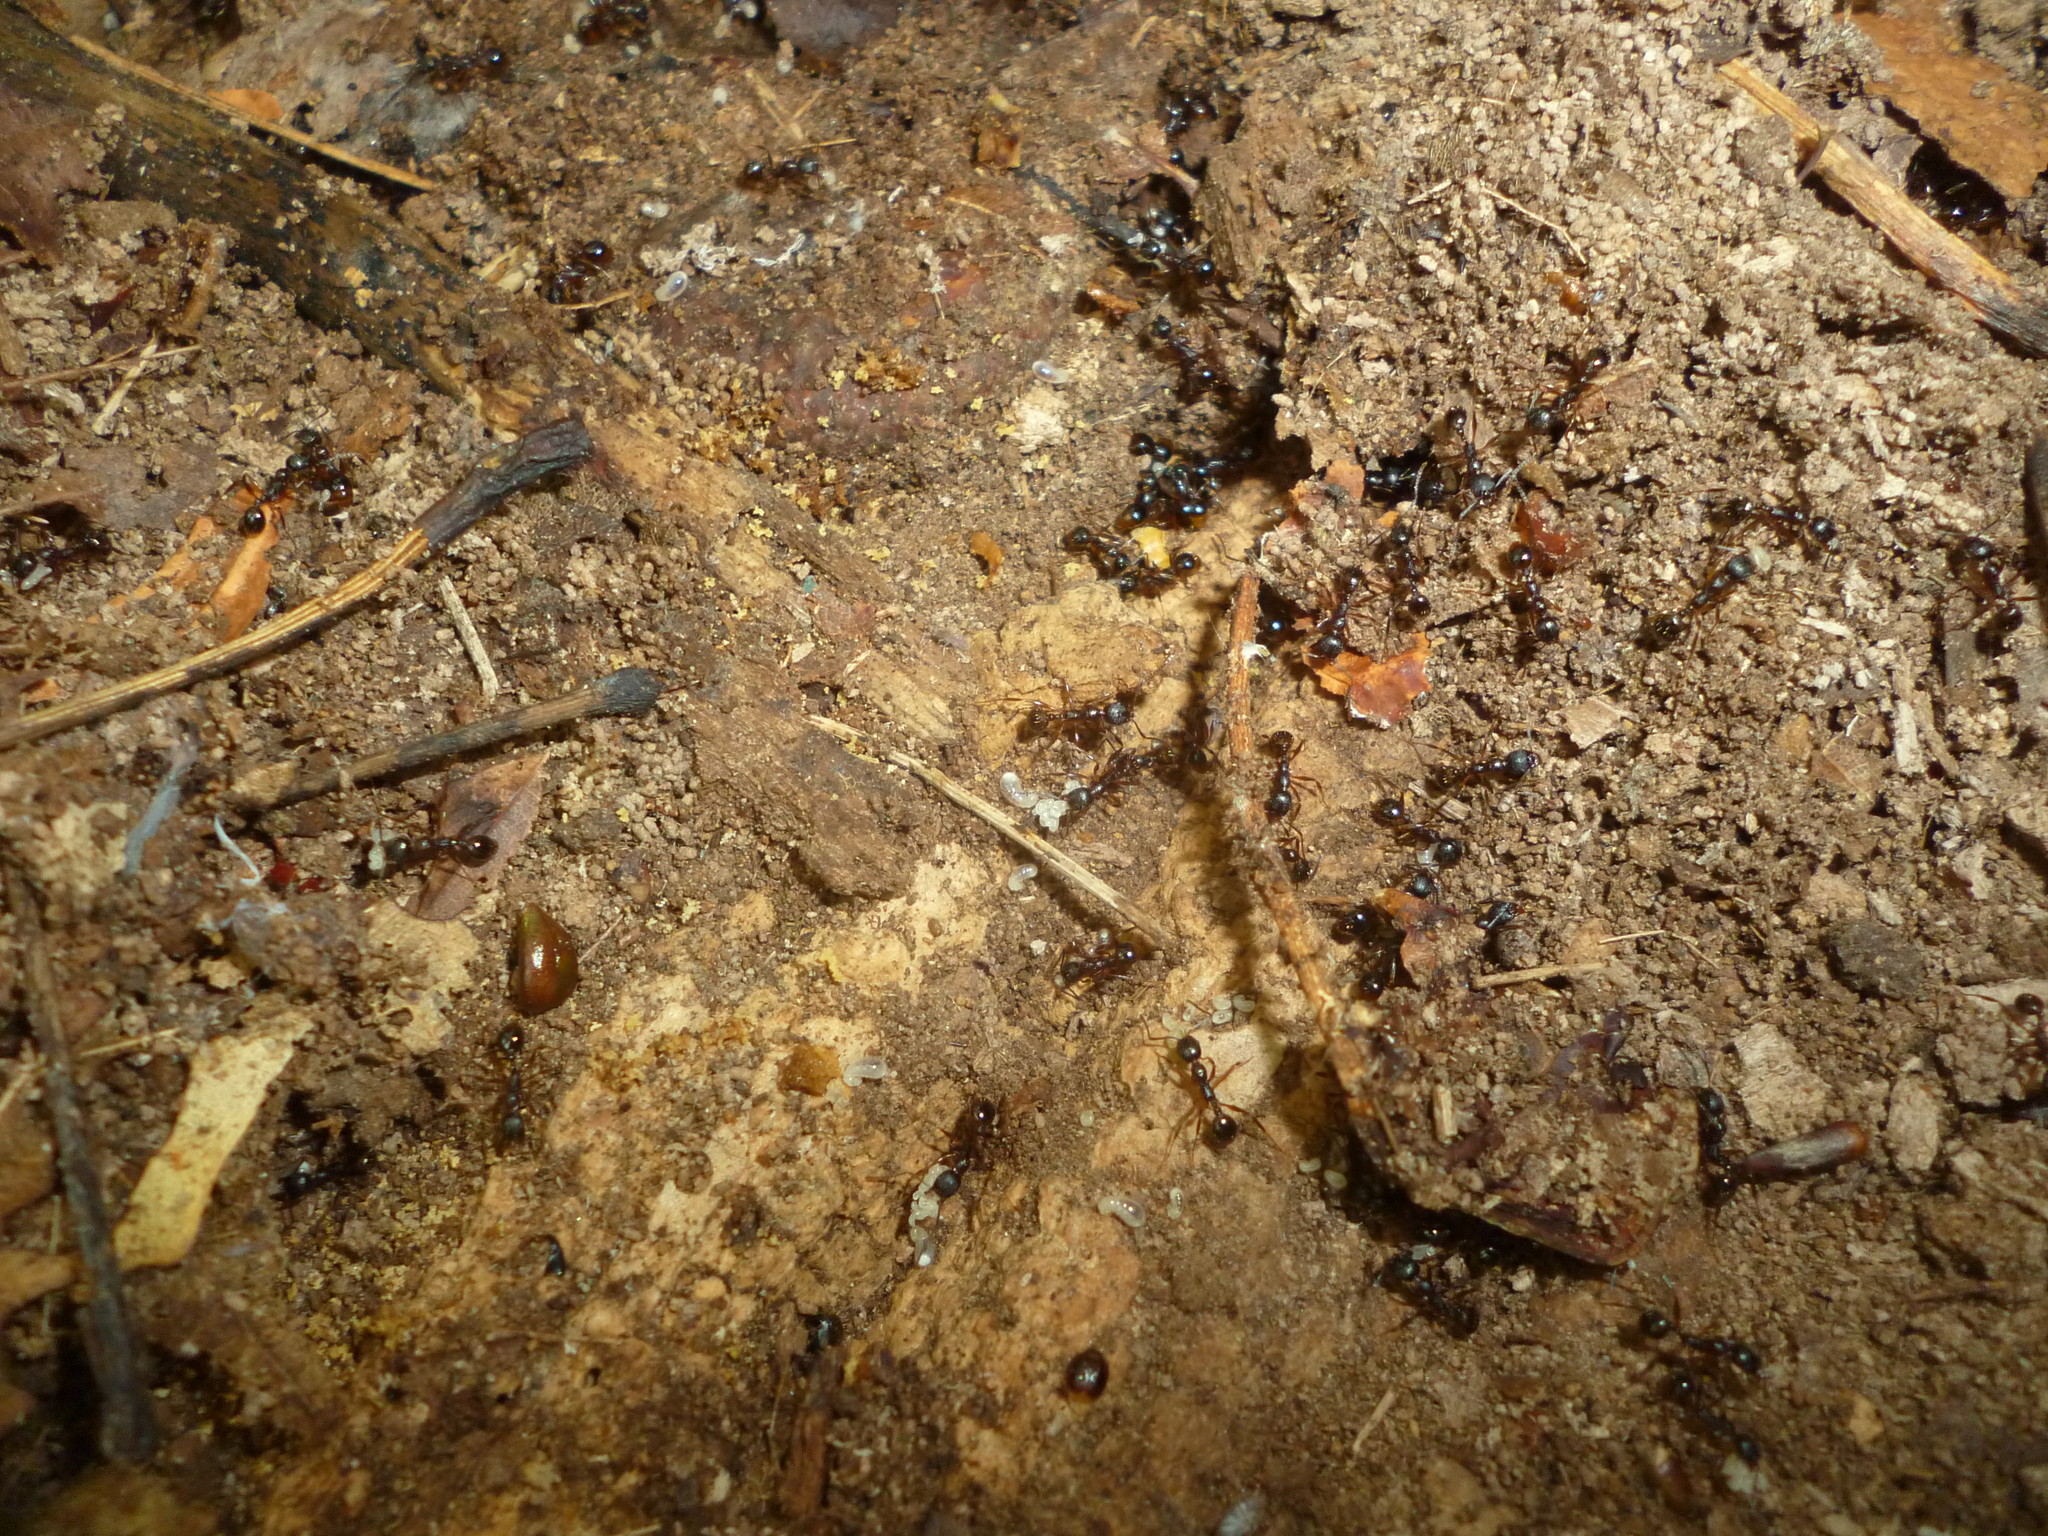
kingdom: Animalia
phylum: Arthropoda
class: Insecta
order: Hymenoptera
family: Formicidae
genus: Aphaenogaster
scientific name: Aphaenogaster rudis
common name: Winnow ant
